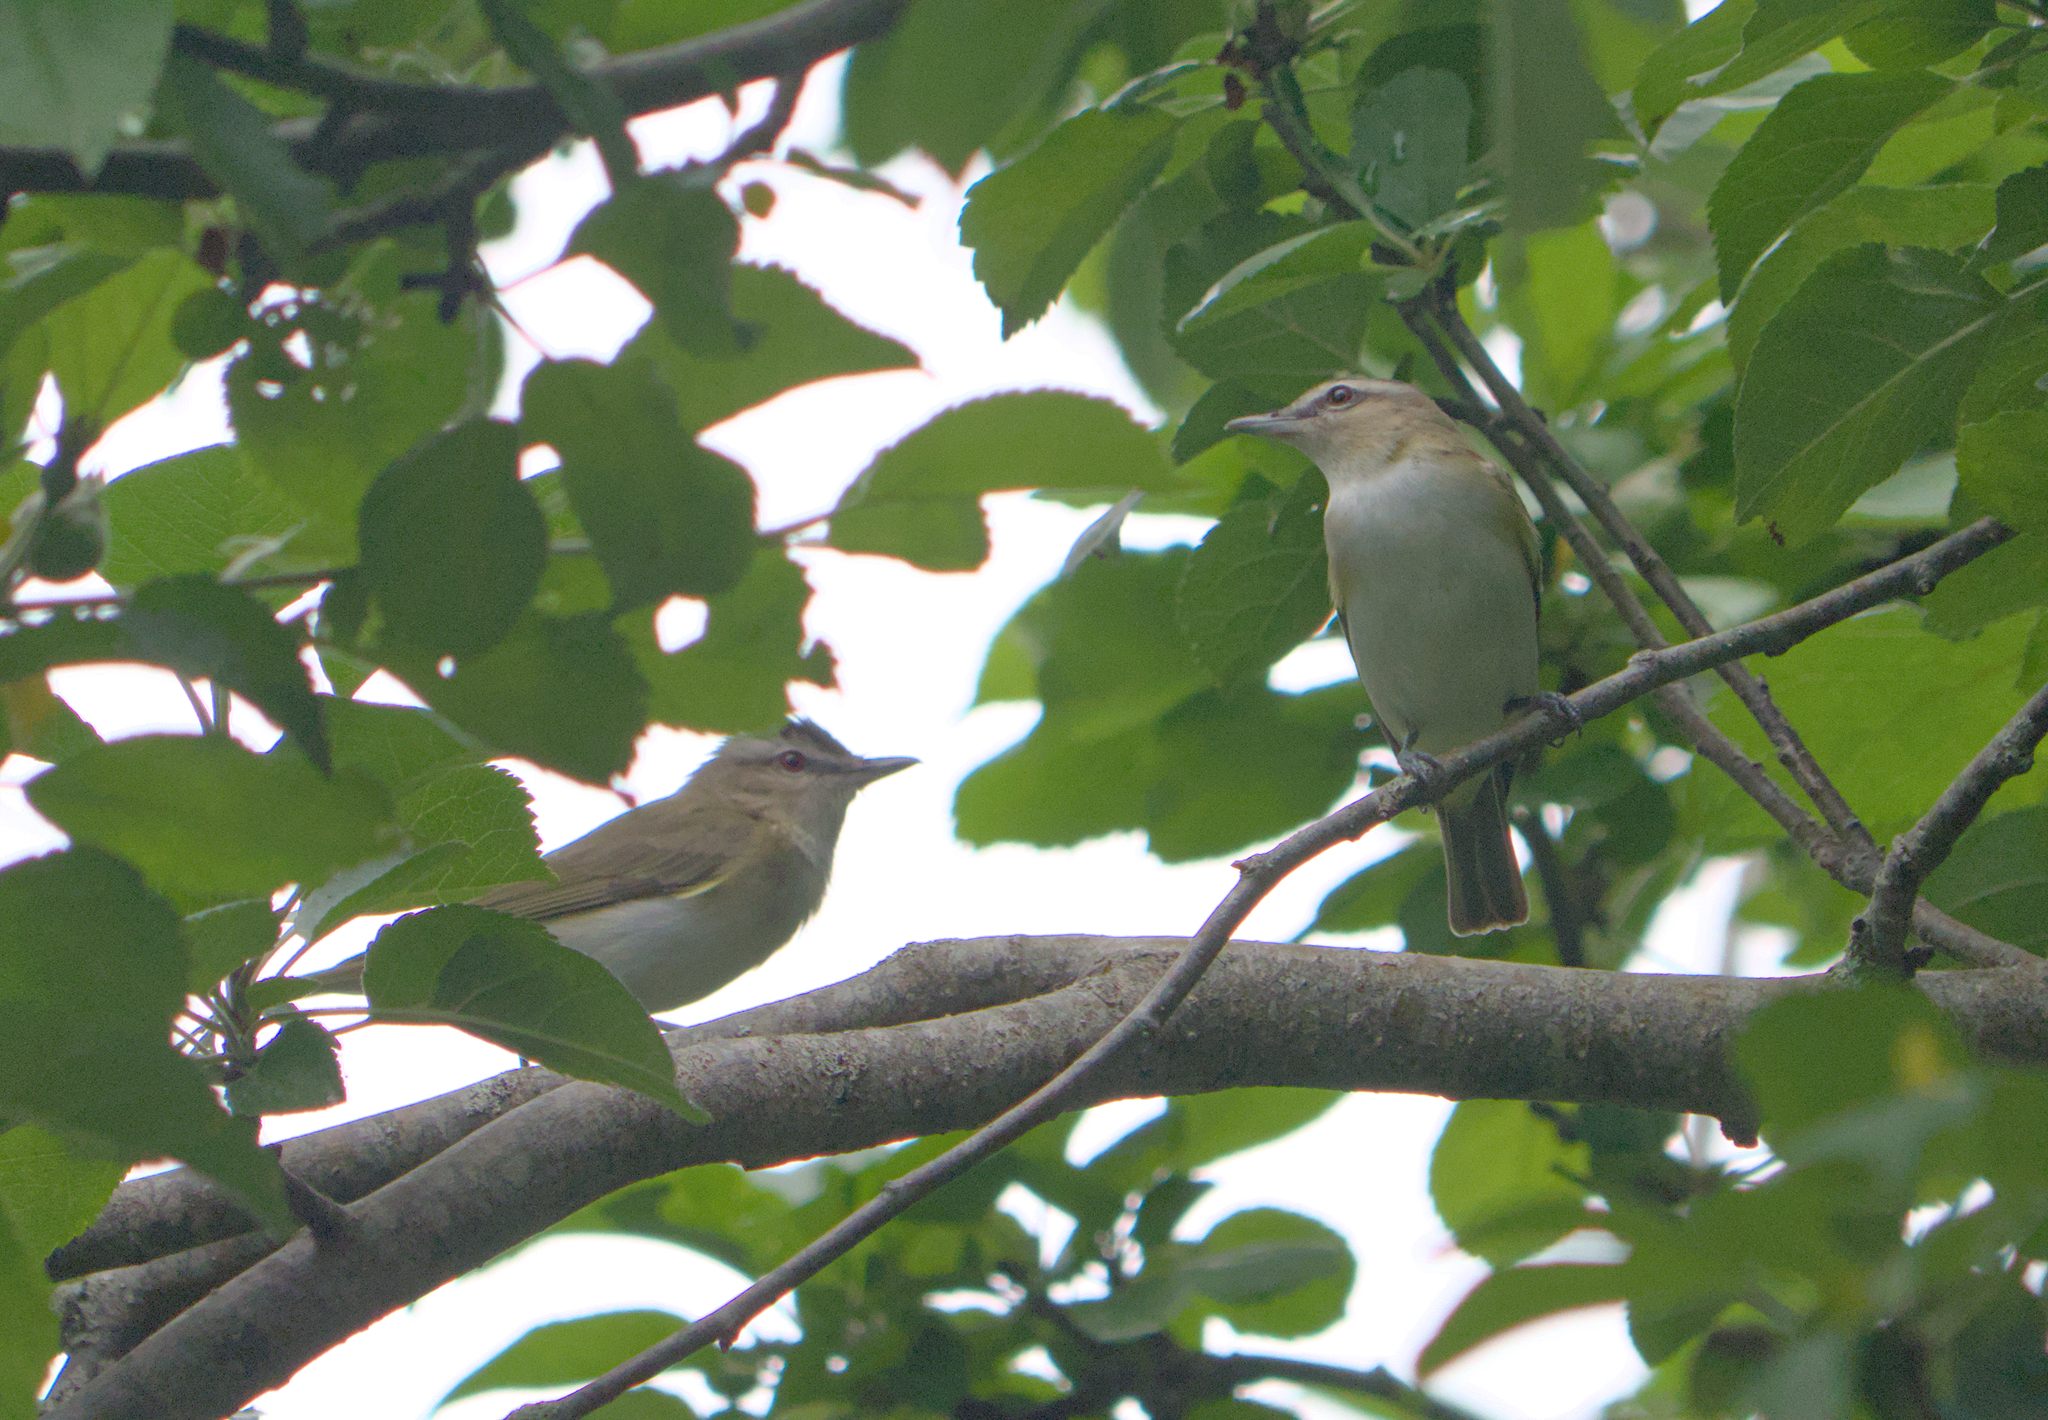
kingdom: Animalia
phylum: Chordata
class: Aves
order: Passeriformes
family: Vireonidae
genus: Vireo
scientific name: Vireo olivaceus
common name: Red-eyed vireo
